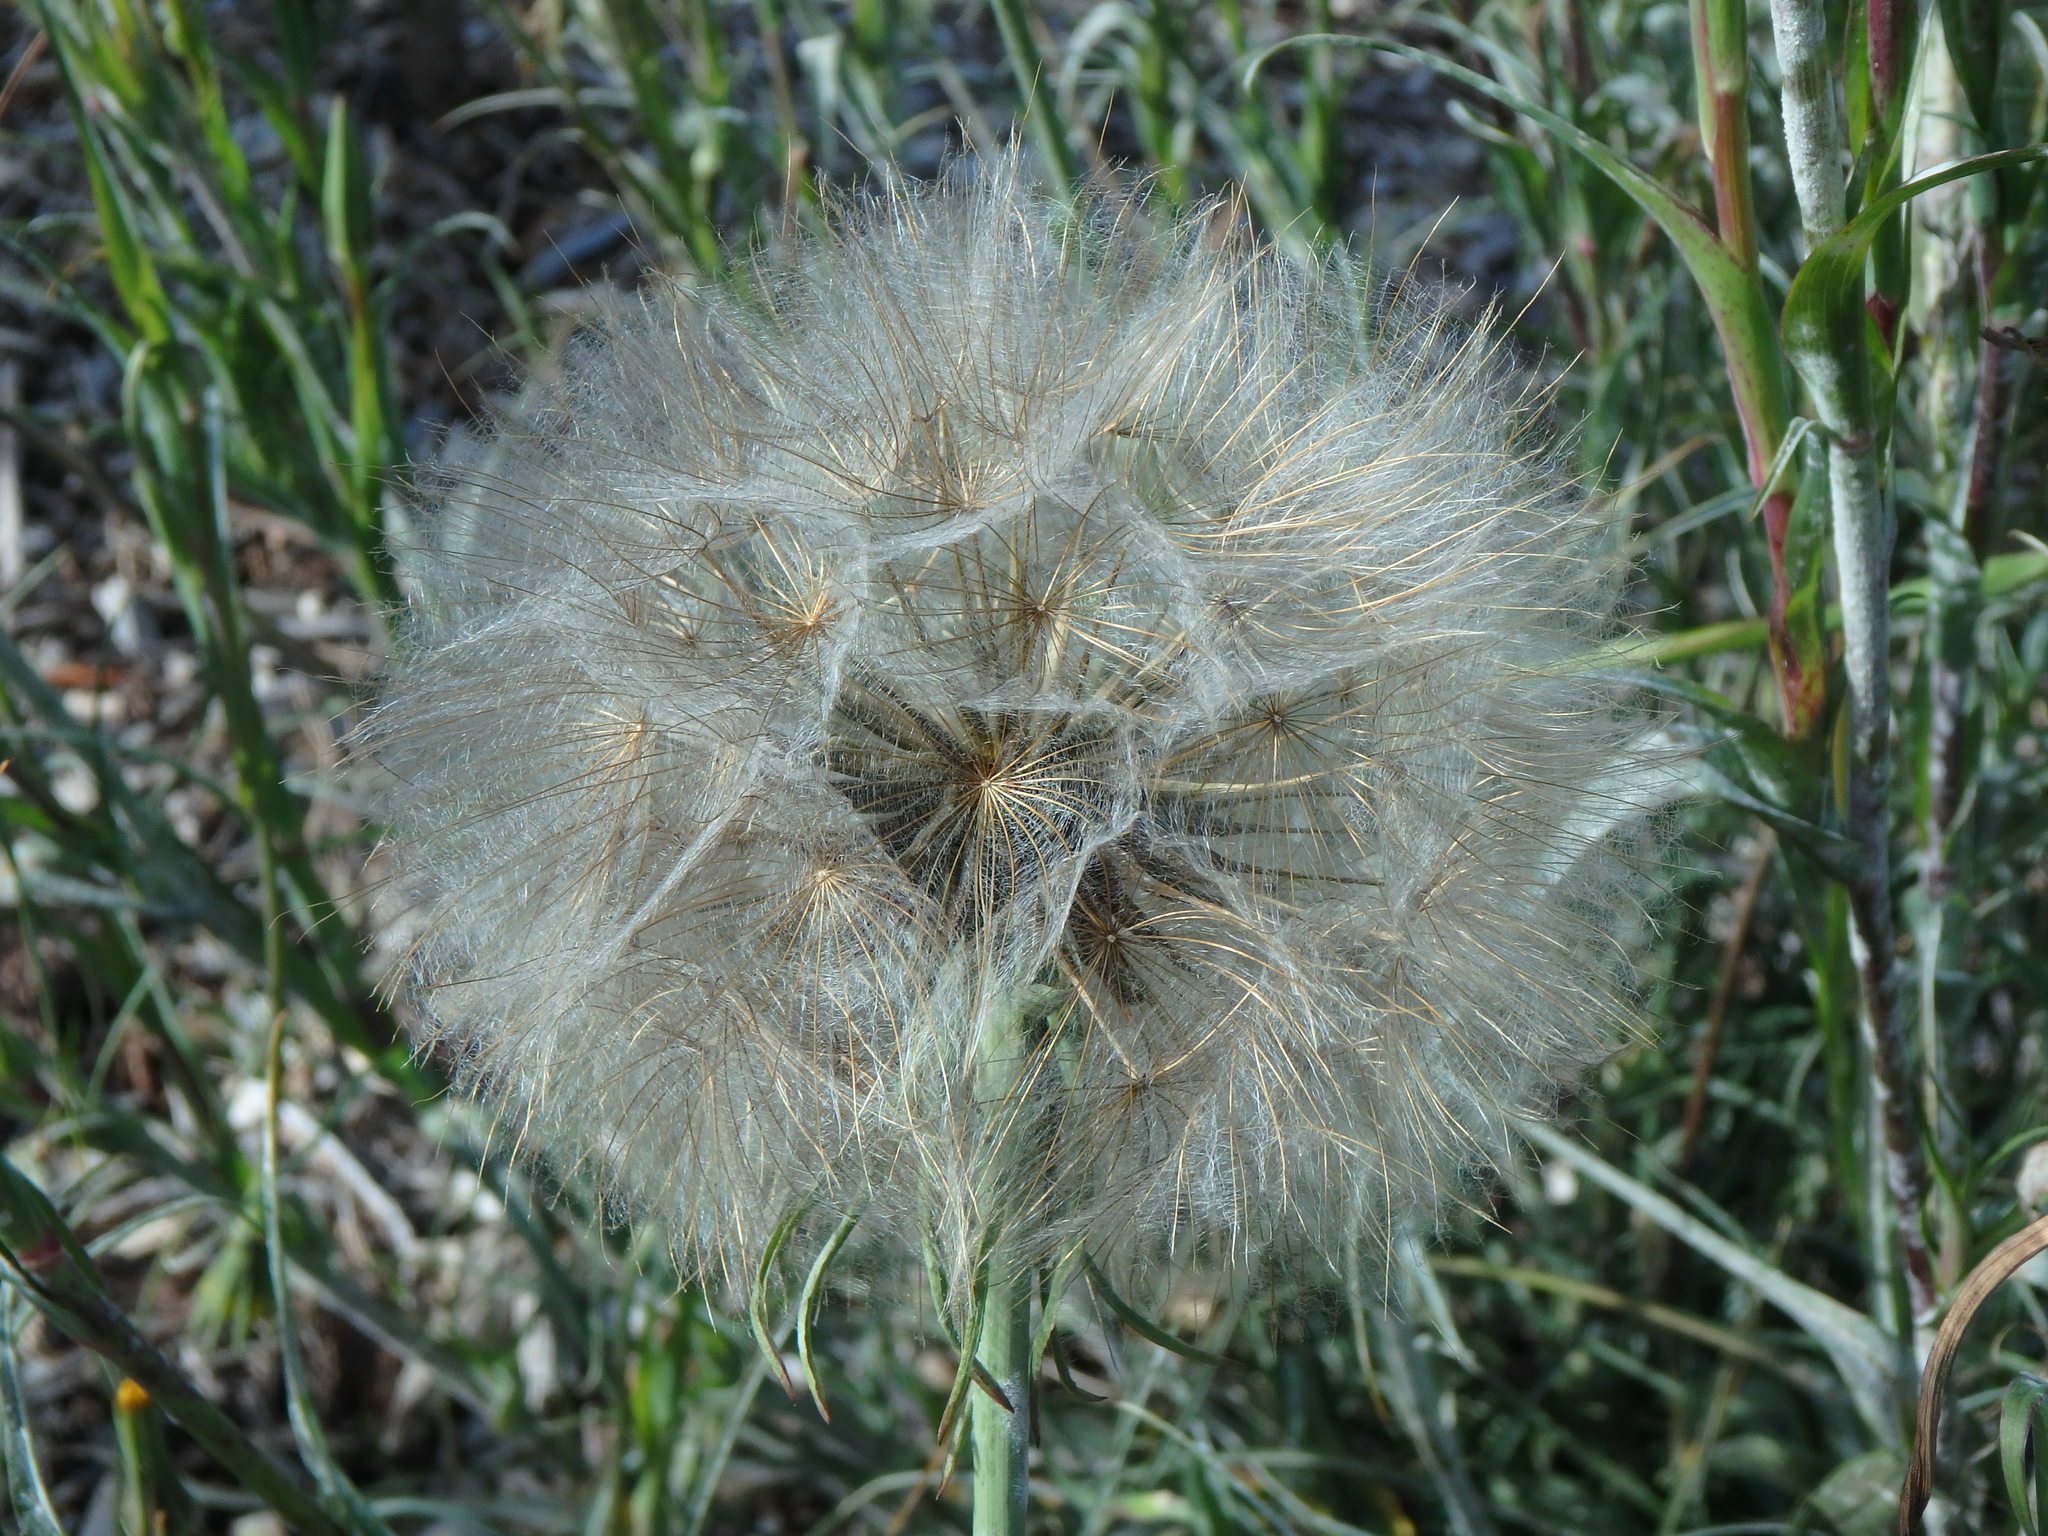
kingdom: Plantae
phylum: Tracheophyta
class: Magnoliopsida
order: Asterales
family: Asteraceae
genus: Tragopogon
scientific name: Tragopogon pratensis
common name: Goat's-beard
